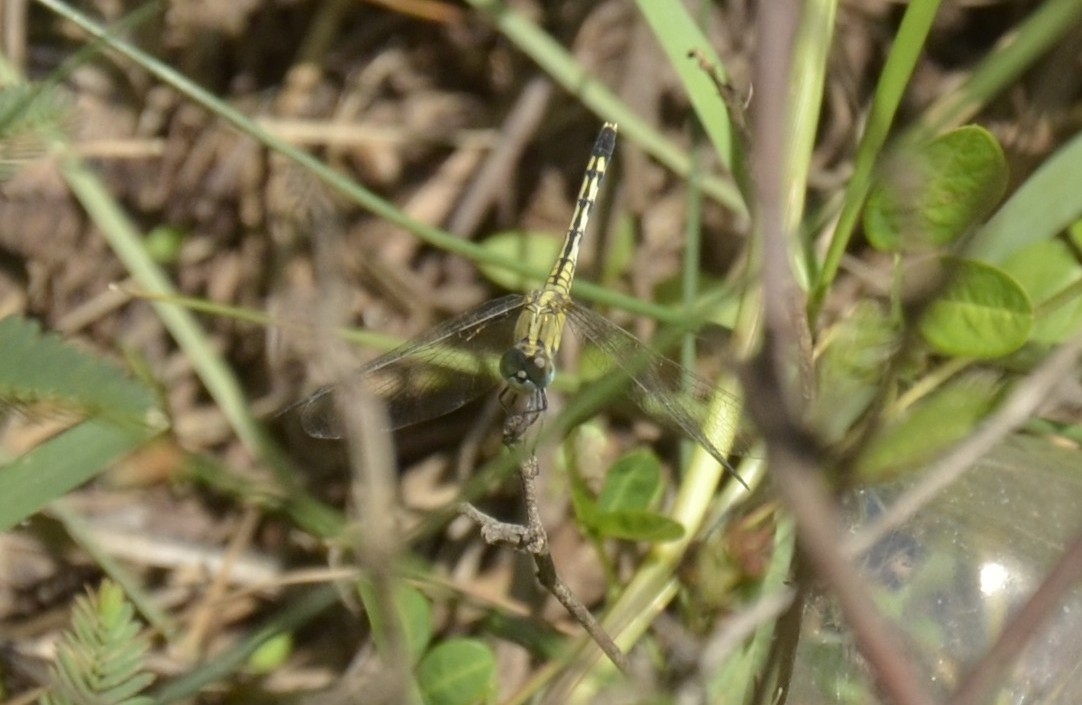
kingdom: Animalia
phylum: Arthropoda
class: Insecta
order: Odonata
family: Libellulidae
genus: Diplacodes
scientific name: Diplacodes trivialis
